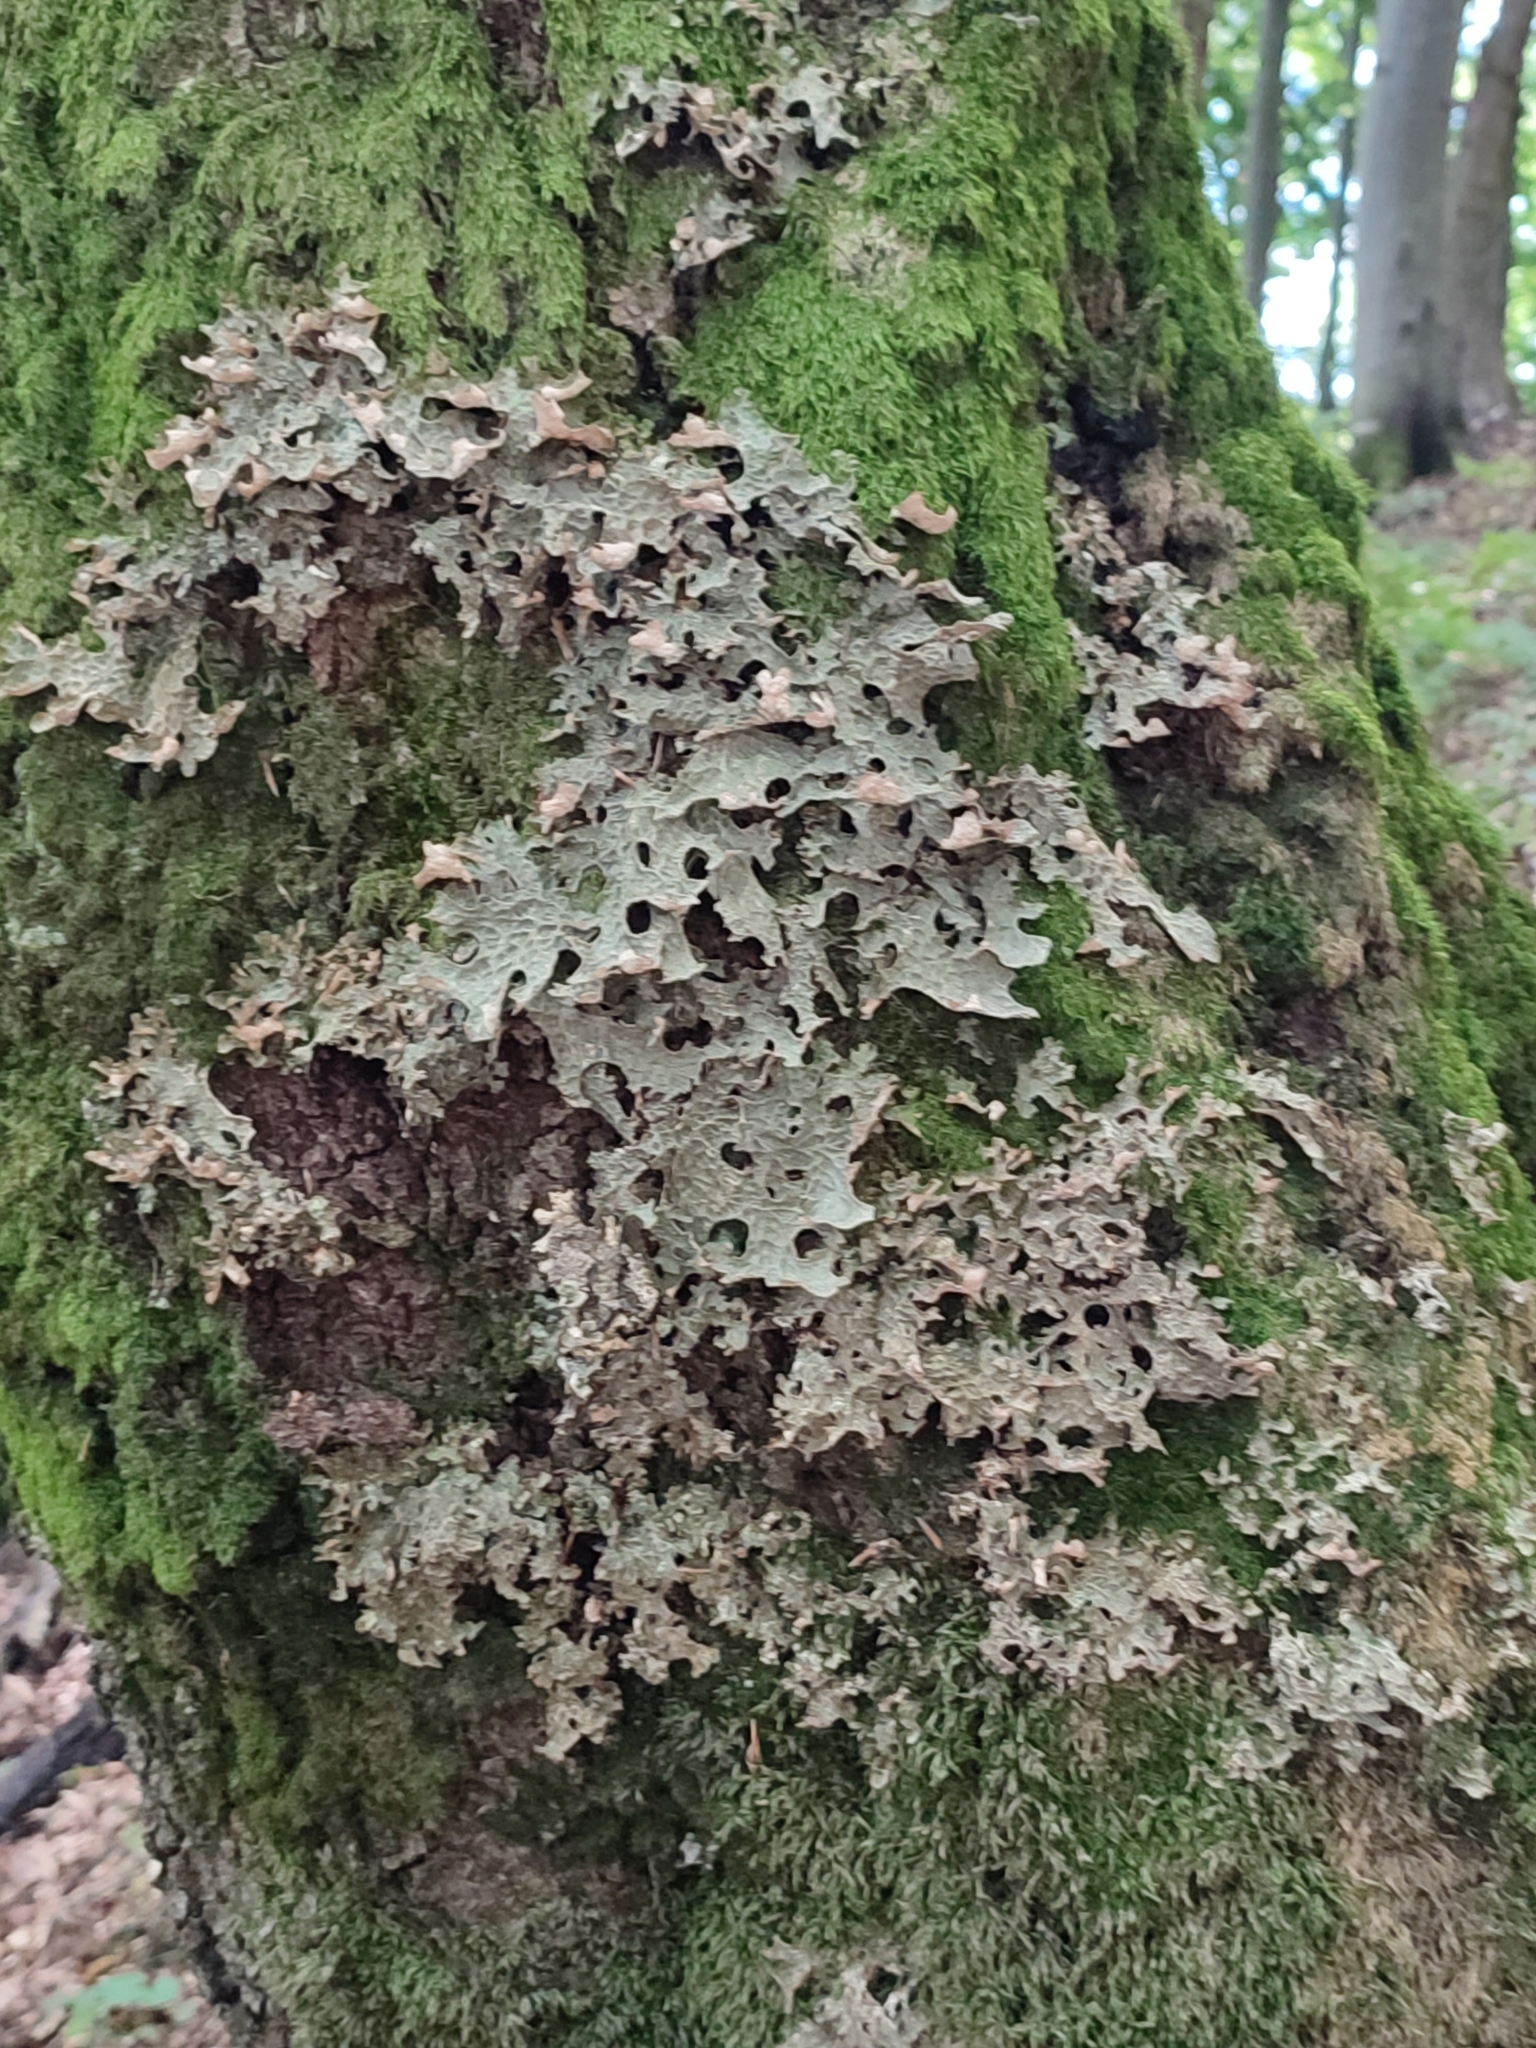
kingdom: Fungi
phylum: Ascomycota
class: Lecanoromycetes
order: Peltigerales
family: Lobariaceae
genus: Lobaria
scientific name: Lobaria pulmonaria
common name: Lungwort
